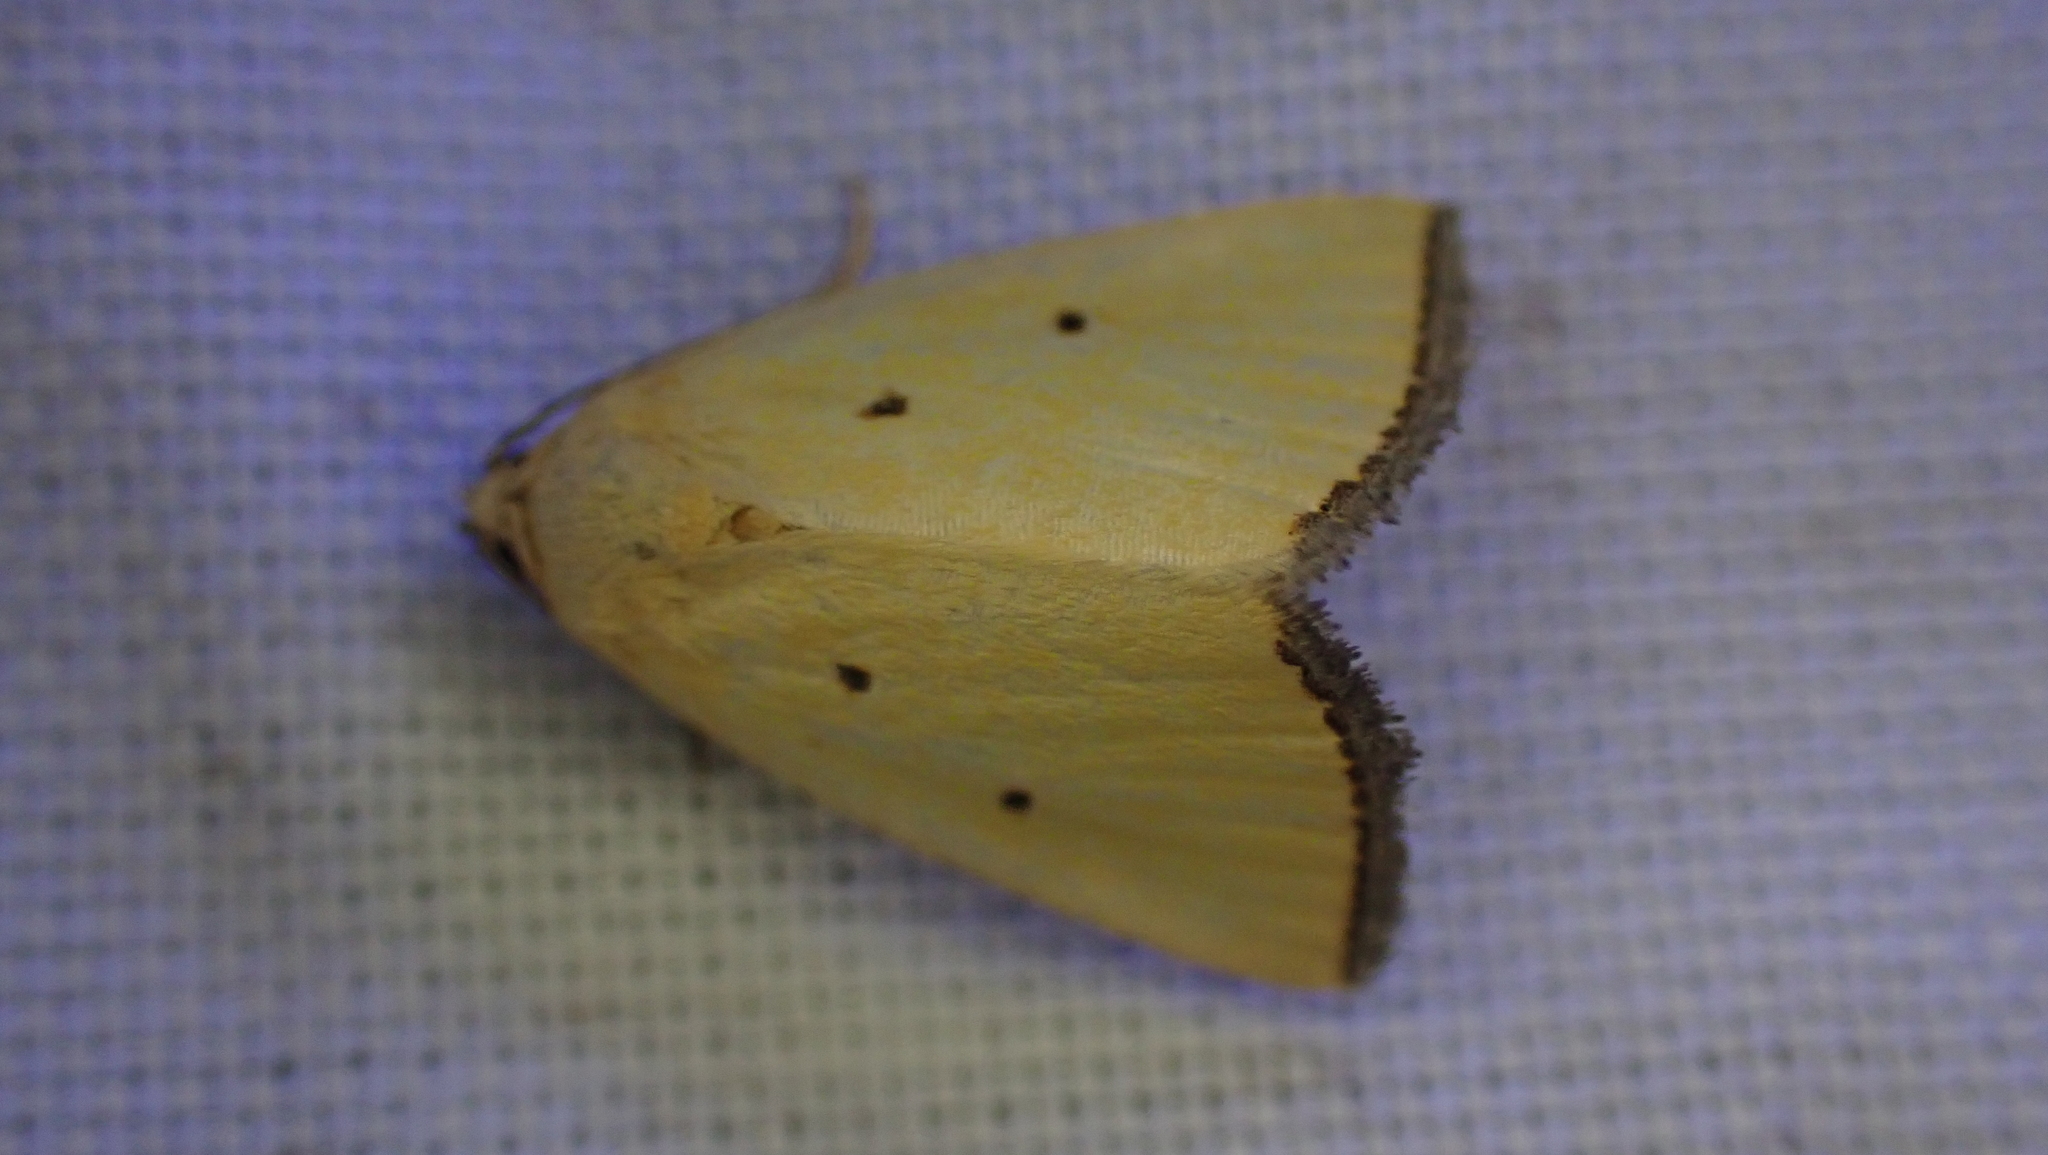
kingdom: Animalia
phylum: Arthropoda
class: Insecta
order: Lepidoptera
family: Noctuidae
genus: Marimatha
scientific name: Marimatha nigrofimbria
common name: Black-bordered lemon moth
